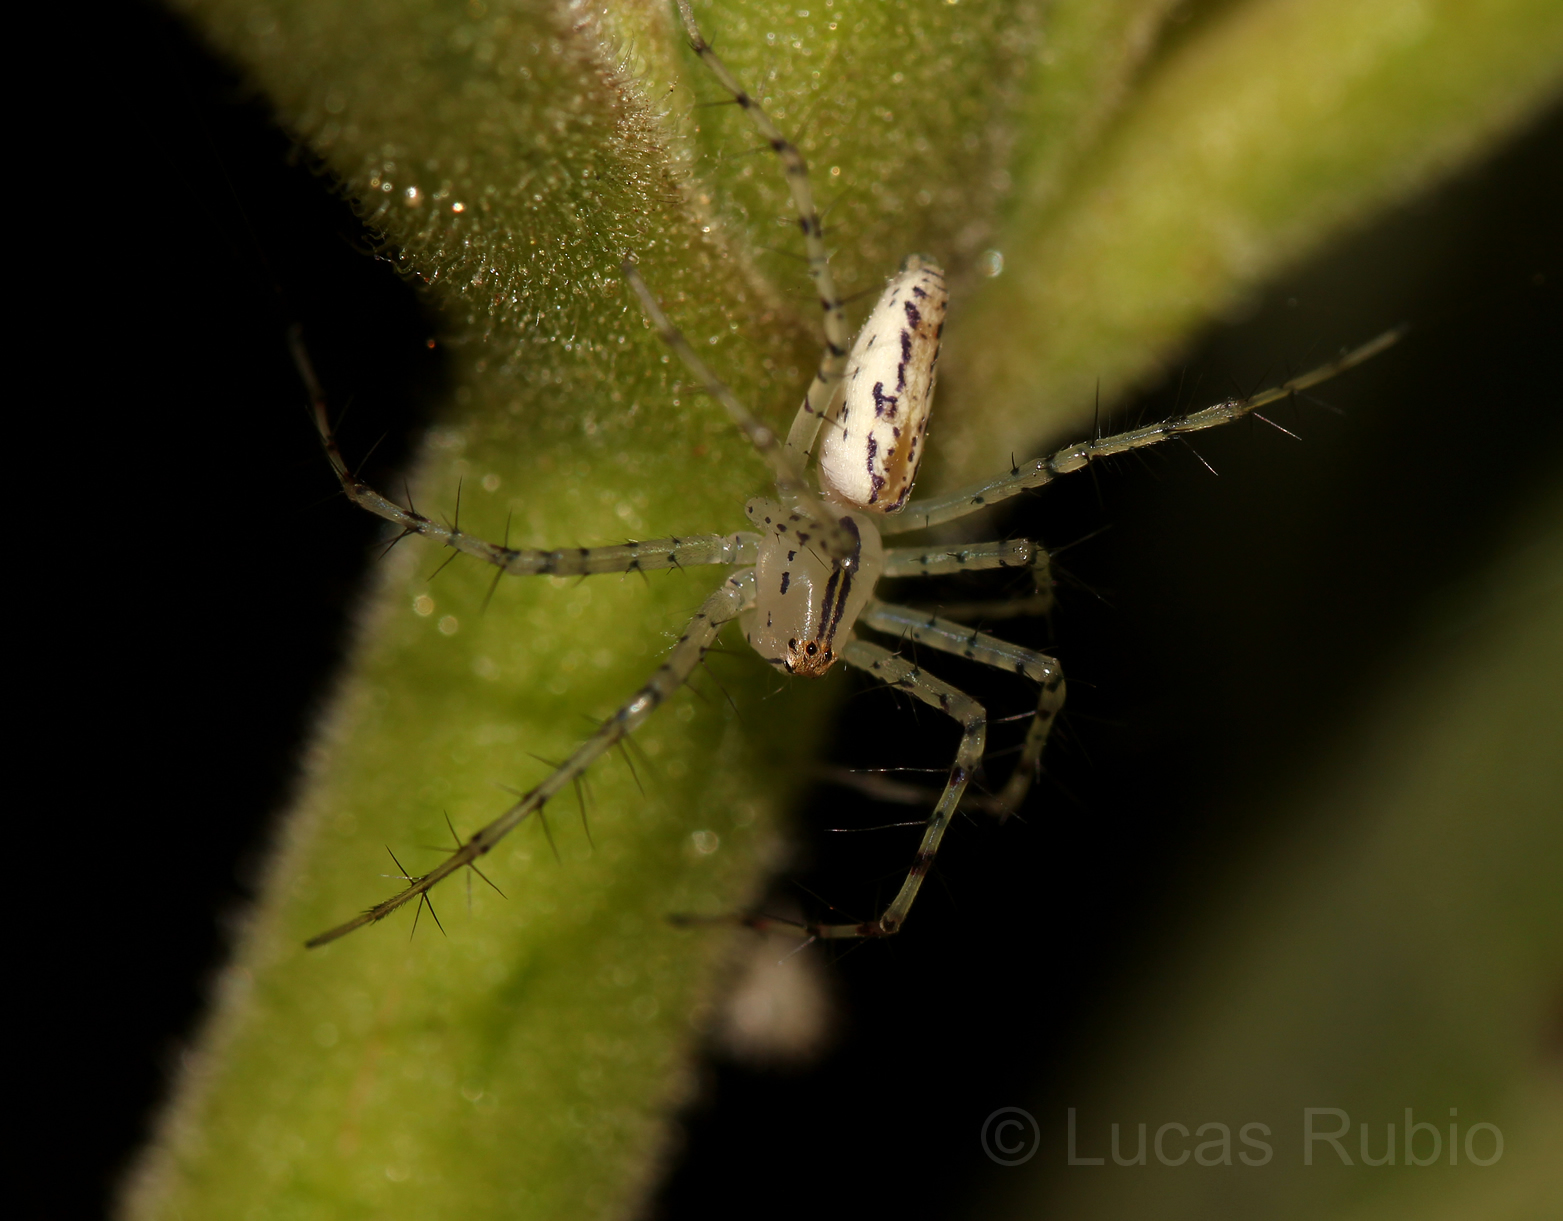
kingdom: Animalia
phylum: Arthropoda
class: Arachnida
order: Araneae
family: Oxyopidae
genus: Peucetia
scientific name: Peucetia rubrolineata
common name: Lynx spiders
